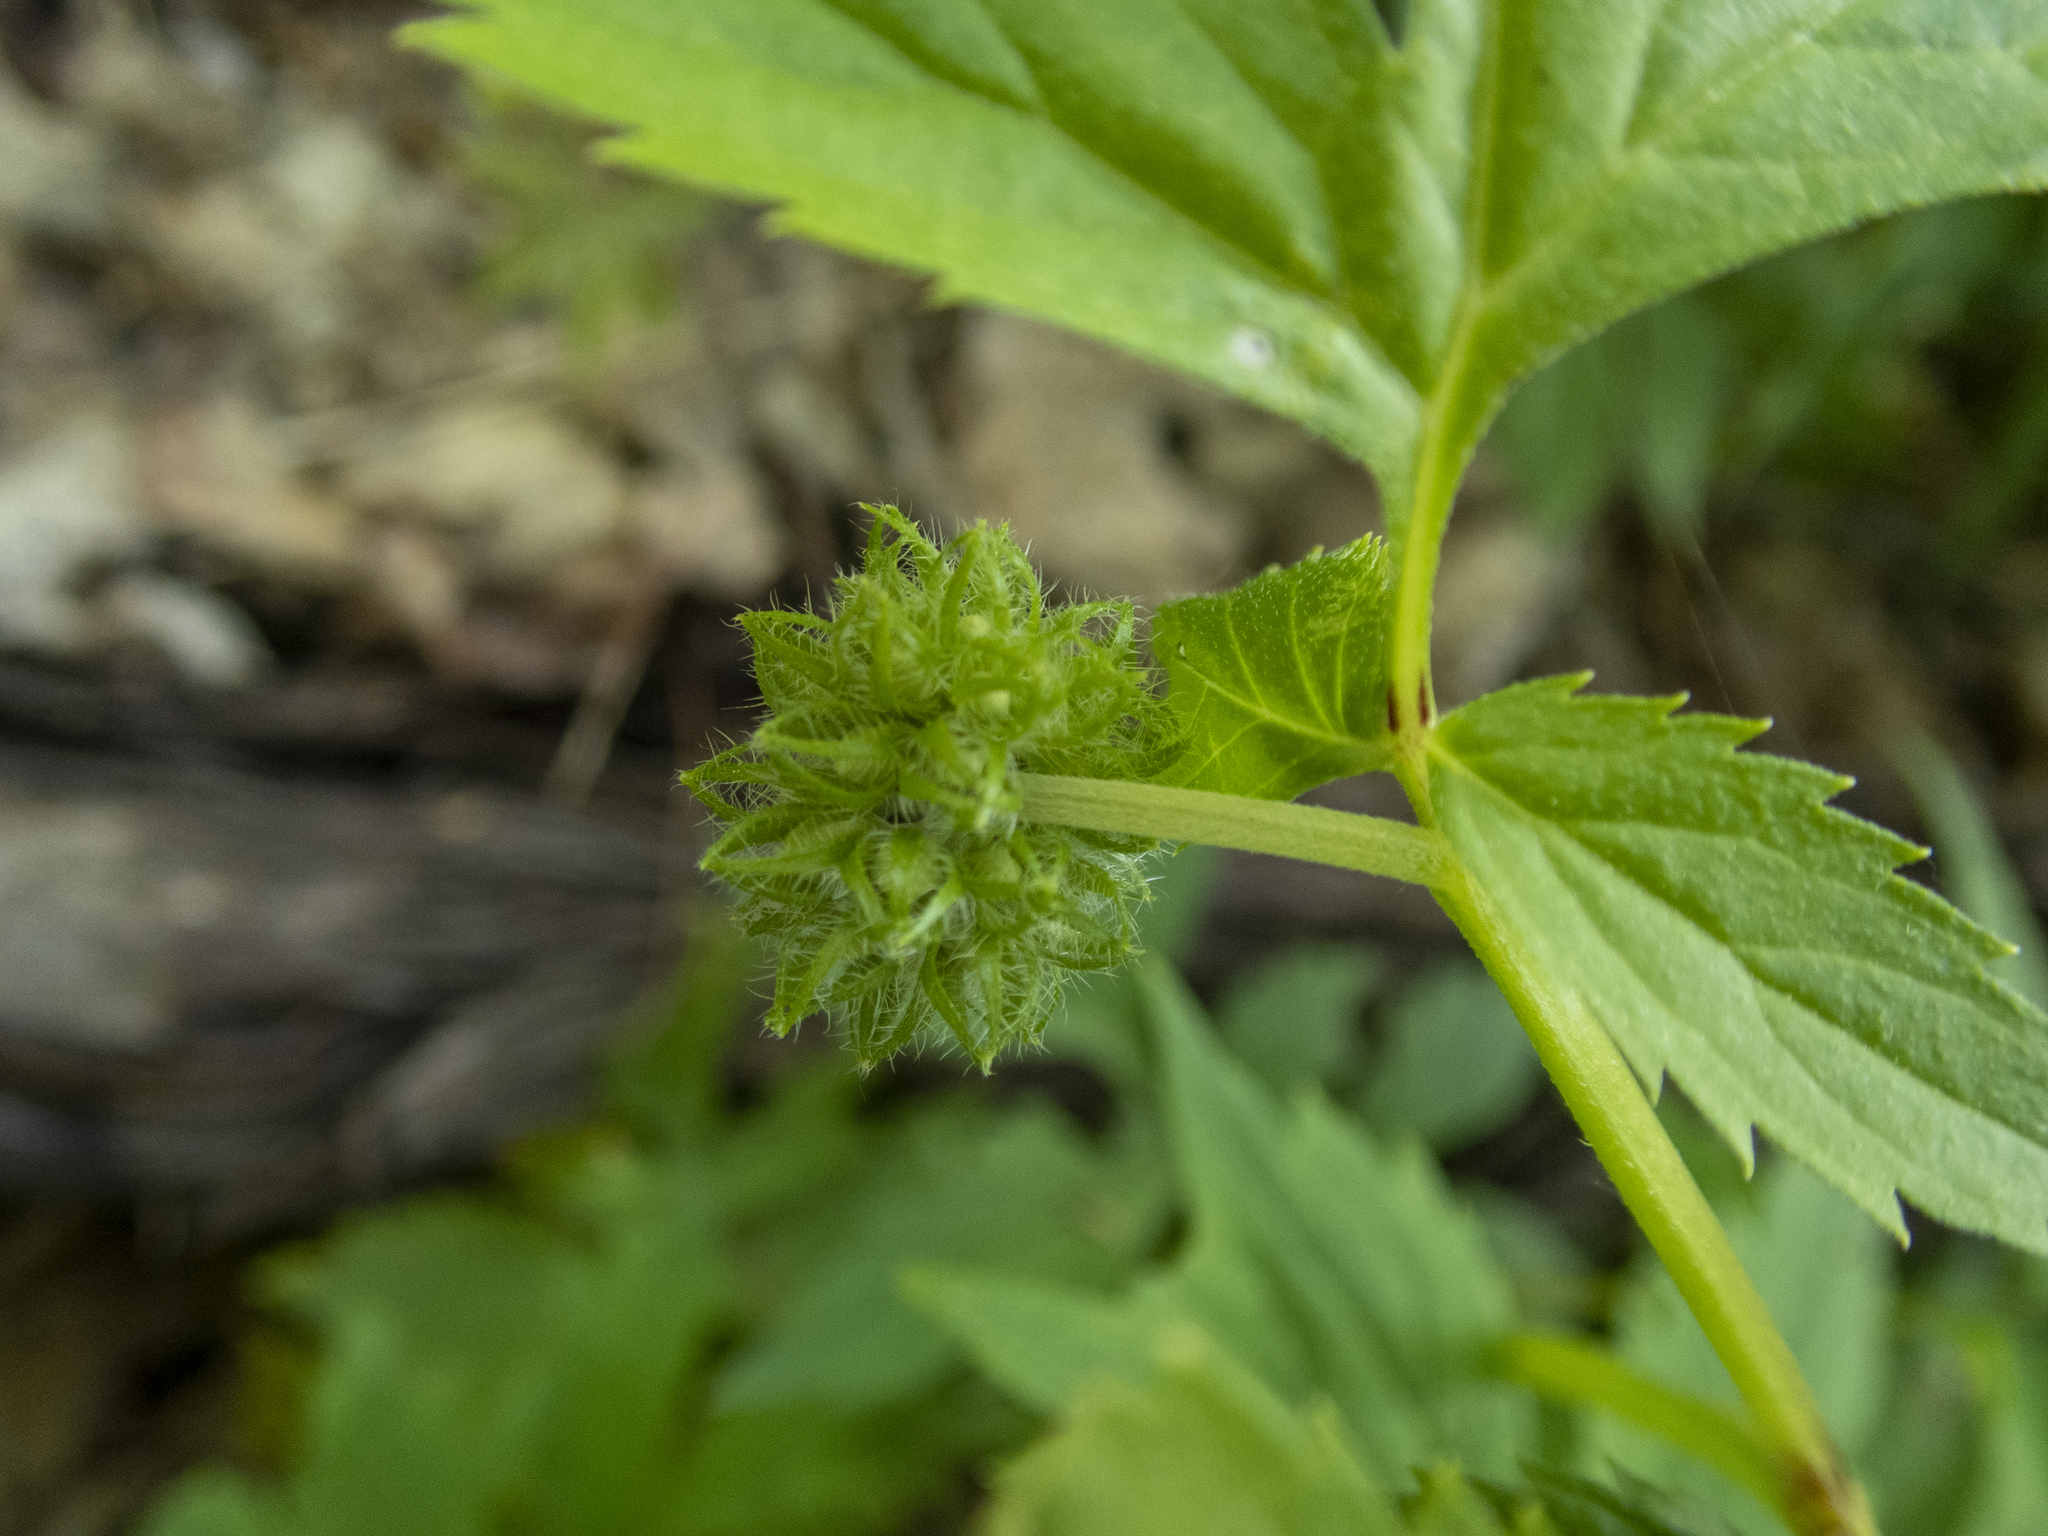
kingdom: Plantae
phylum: Tracheophyta
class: Magnoliopsida
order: Boraginales
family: Hydrophyllaceae
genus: Hydrophyllum
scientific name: Hydrophyllum virginianum
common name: Virginia waterleaf
